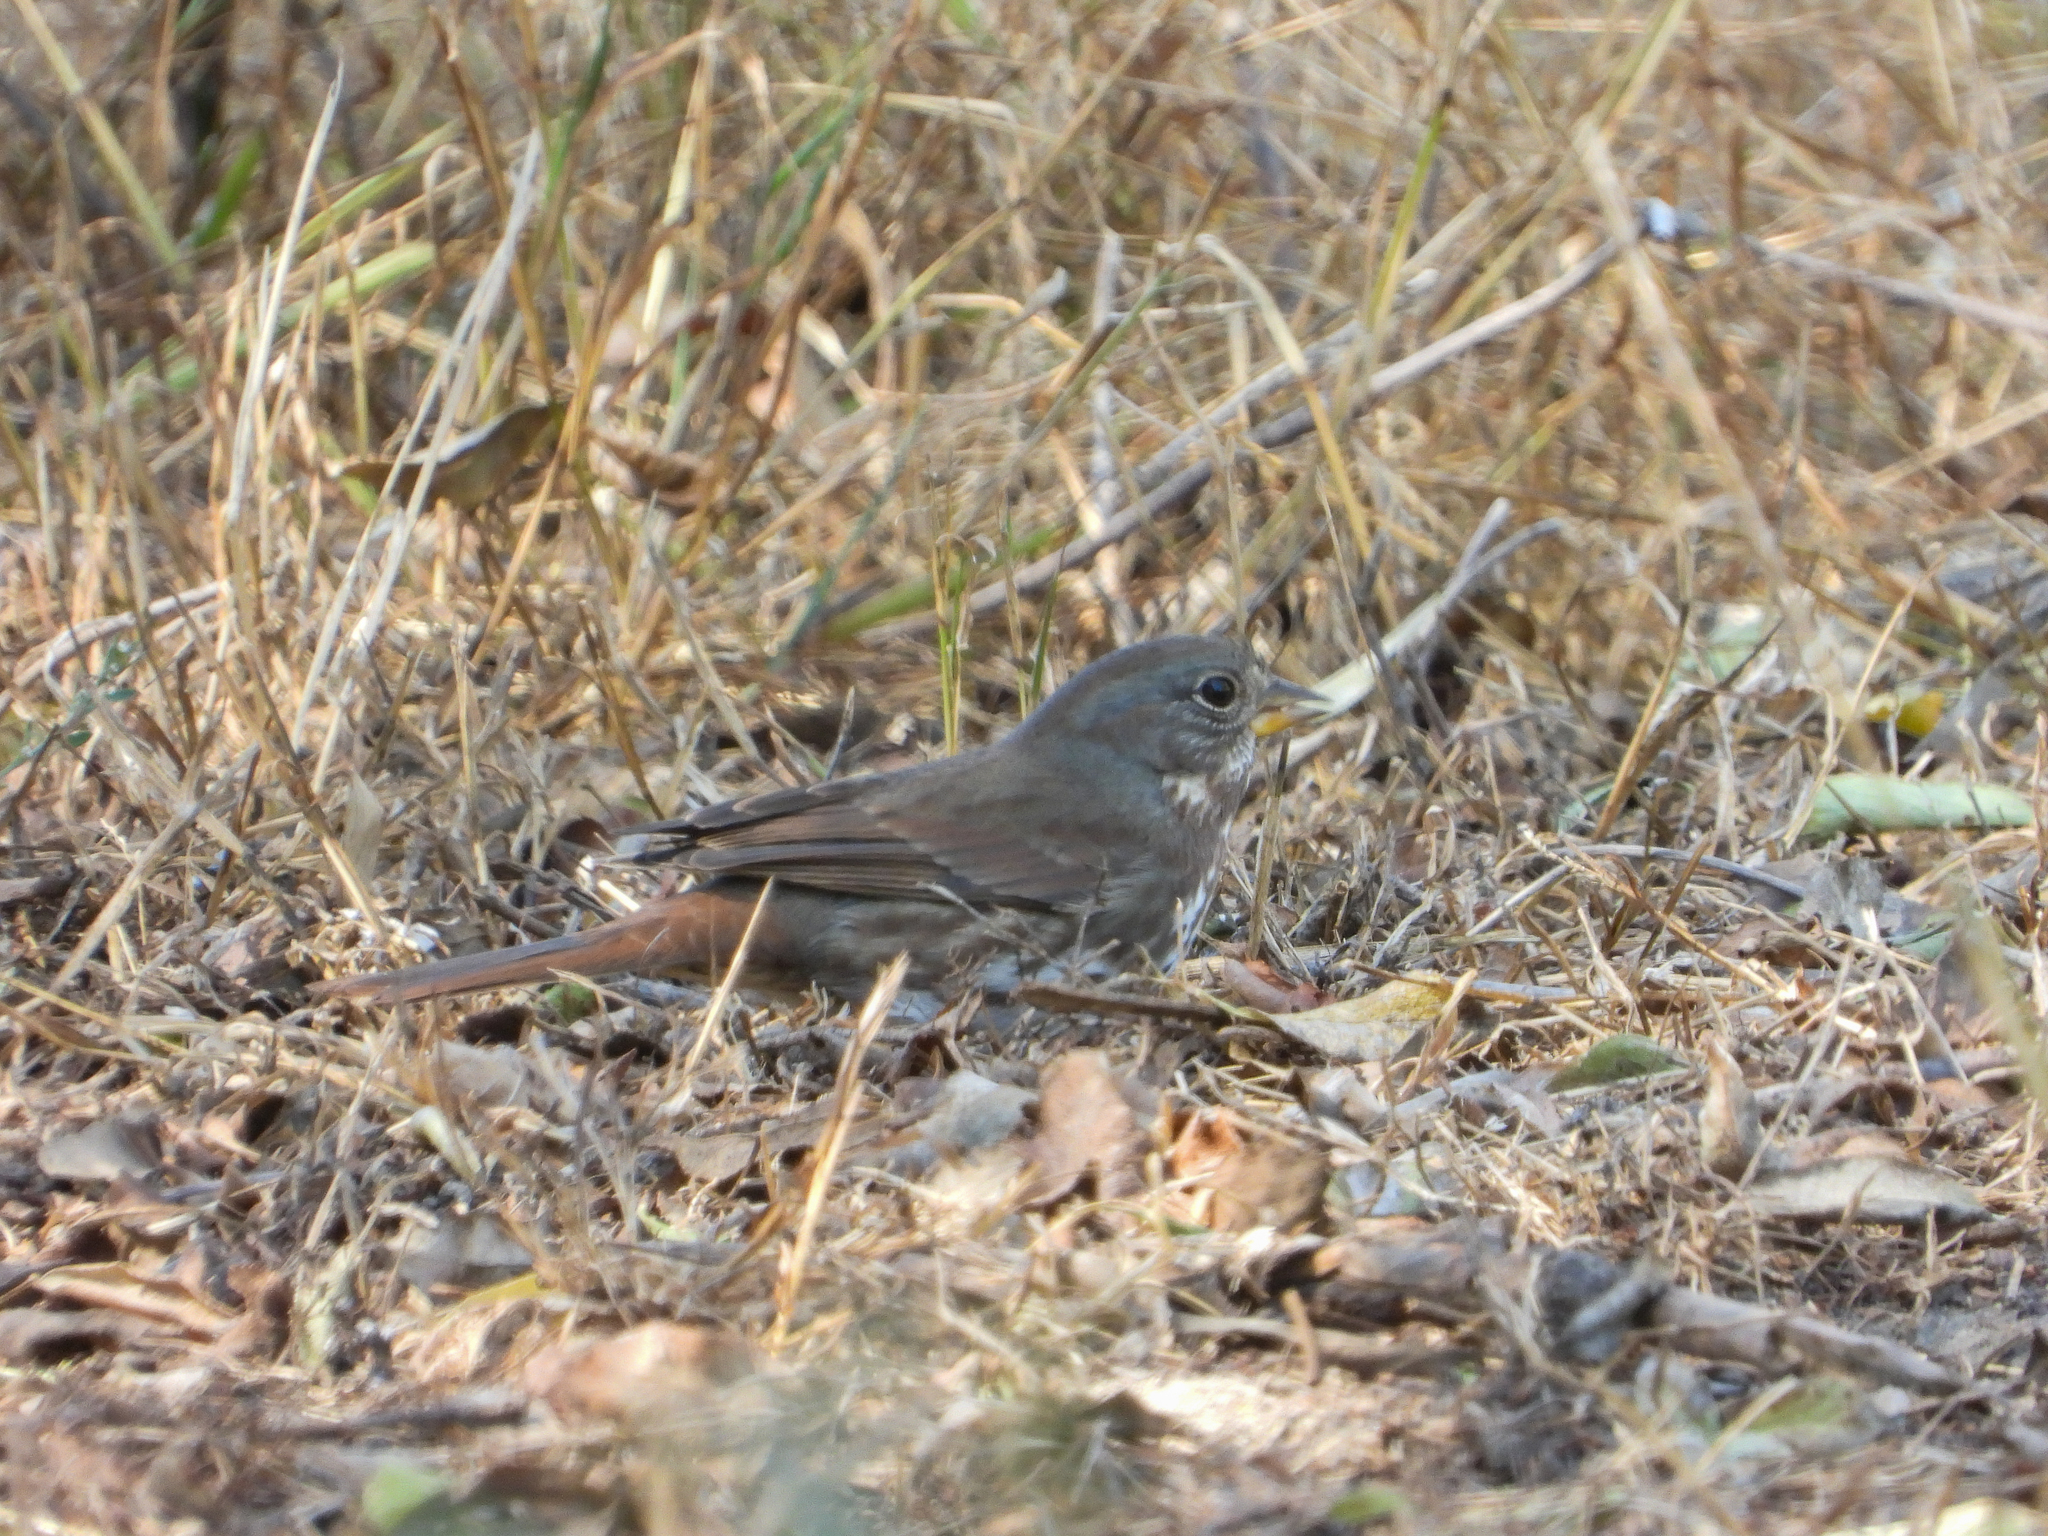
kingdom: Animalia
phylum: Chordata
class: Aves
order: Passeriformes
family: Passerellidae
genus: Passerella
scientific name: Passerella iliaca
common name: Fox sparrow
